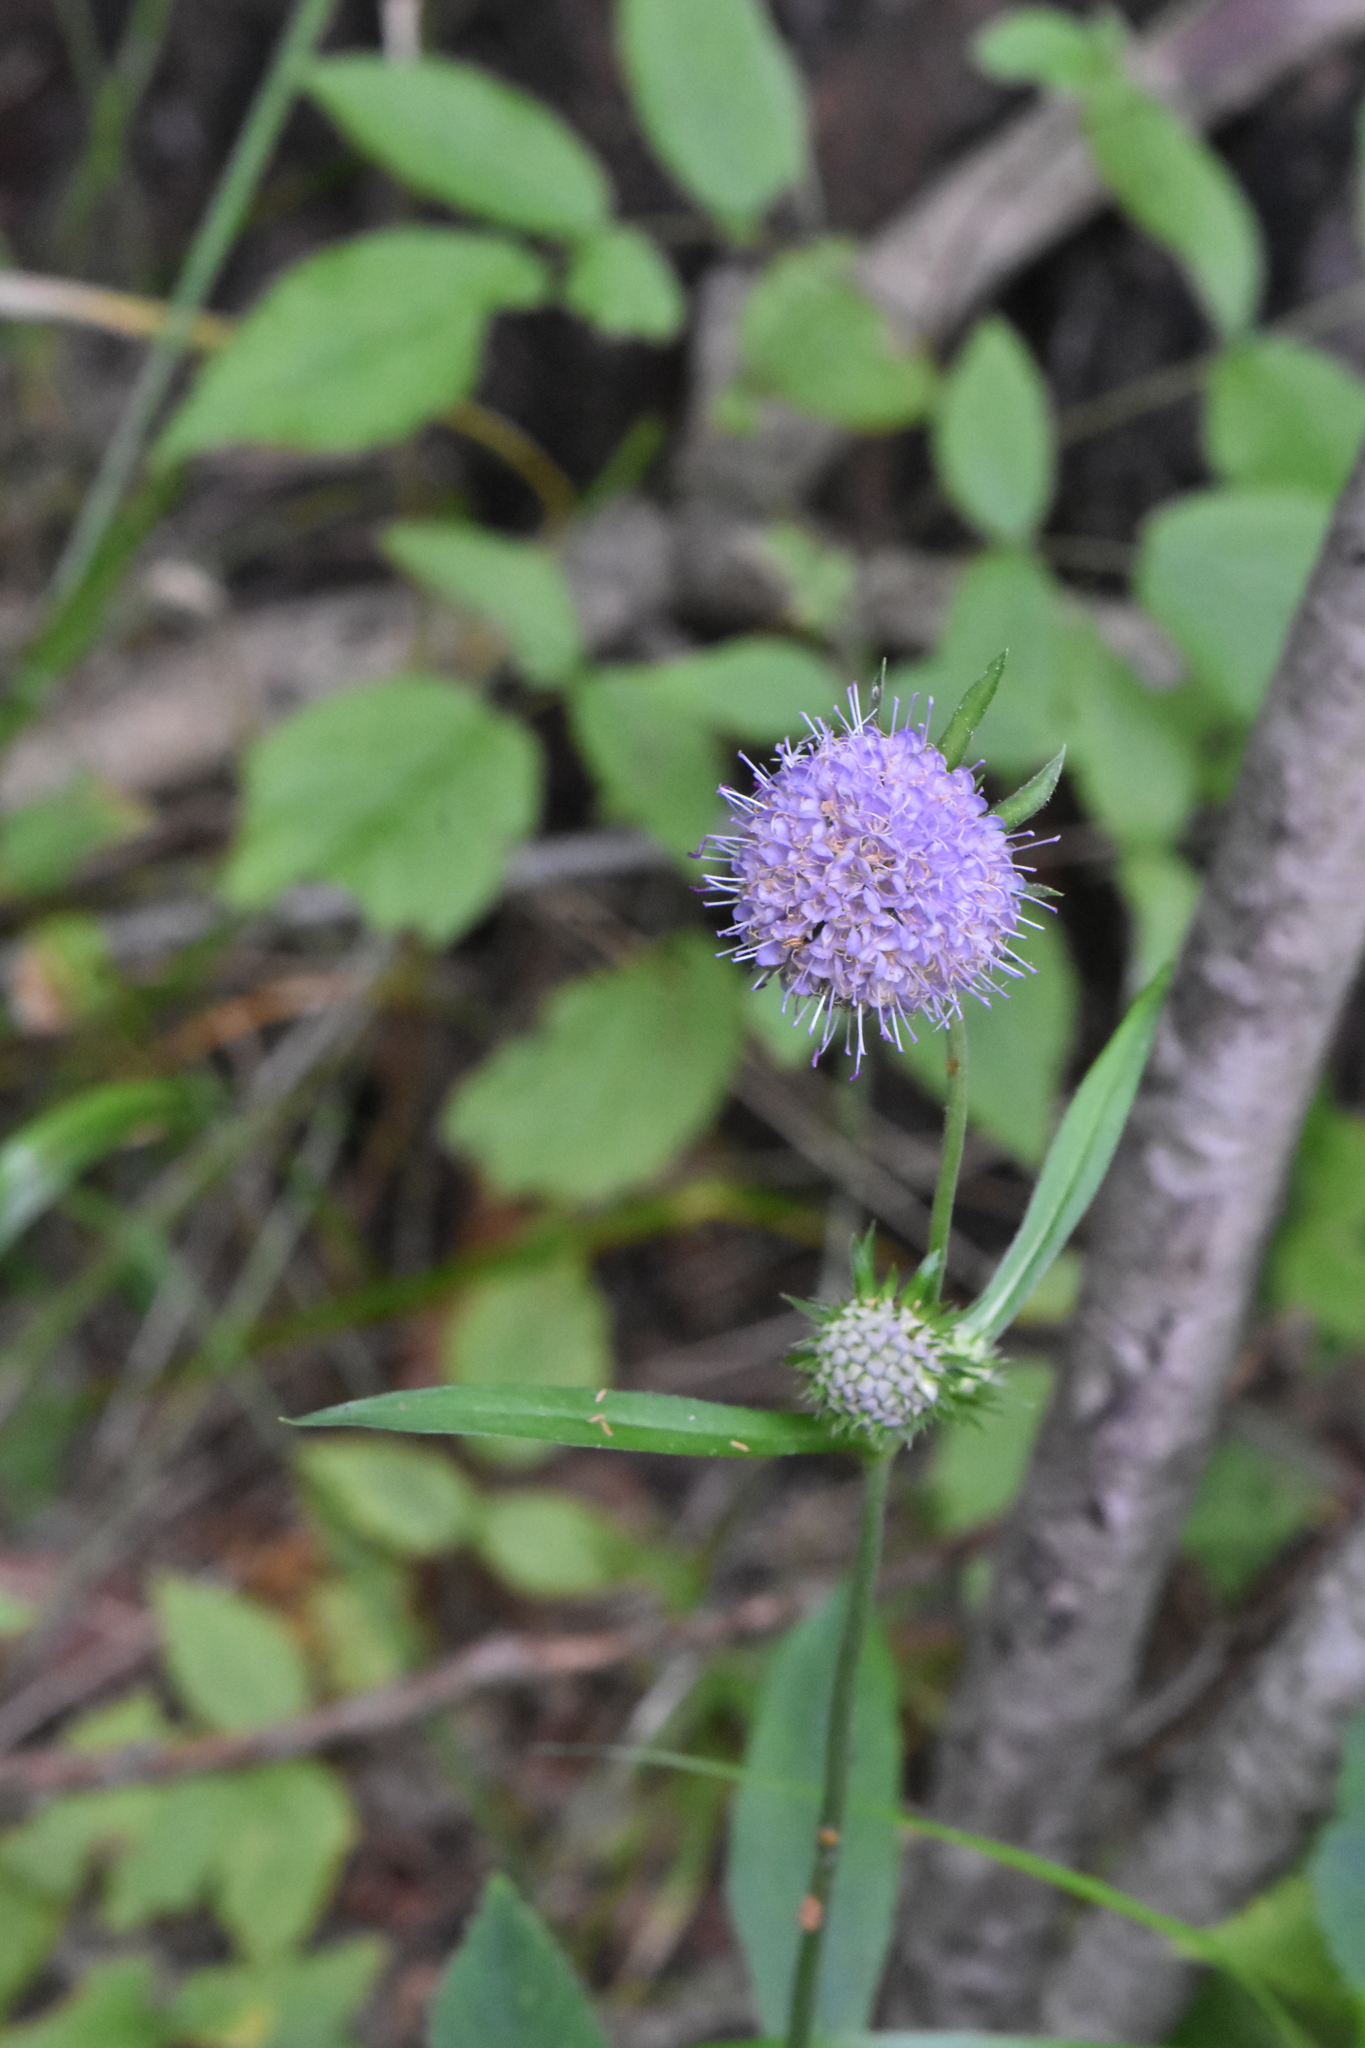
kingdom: Plantae
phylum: Tracheophyta
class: Magnoliopsida
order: Dipsacales
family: Caprifoliaceae
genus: Succisa
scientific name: Succisa pratensis
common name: Devil's-bit
